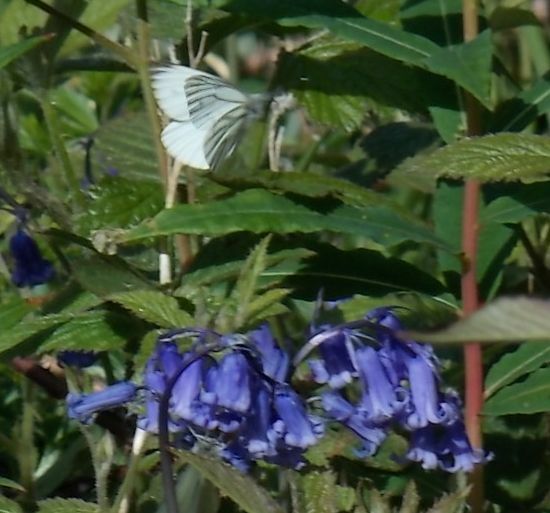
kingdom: Animalia
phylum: Arthropoda
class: Insecta
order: Lepidoptera
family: Pieridae
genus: Pieris
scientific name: Pieris napi
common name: Green-veined white
